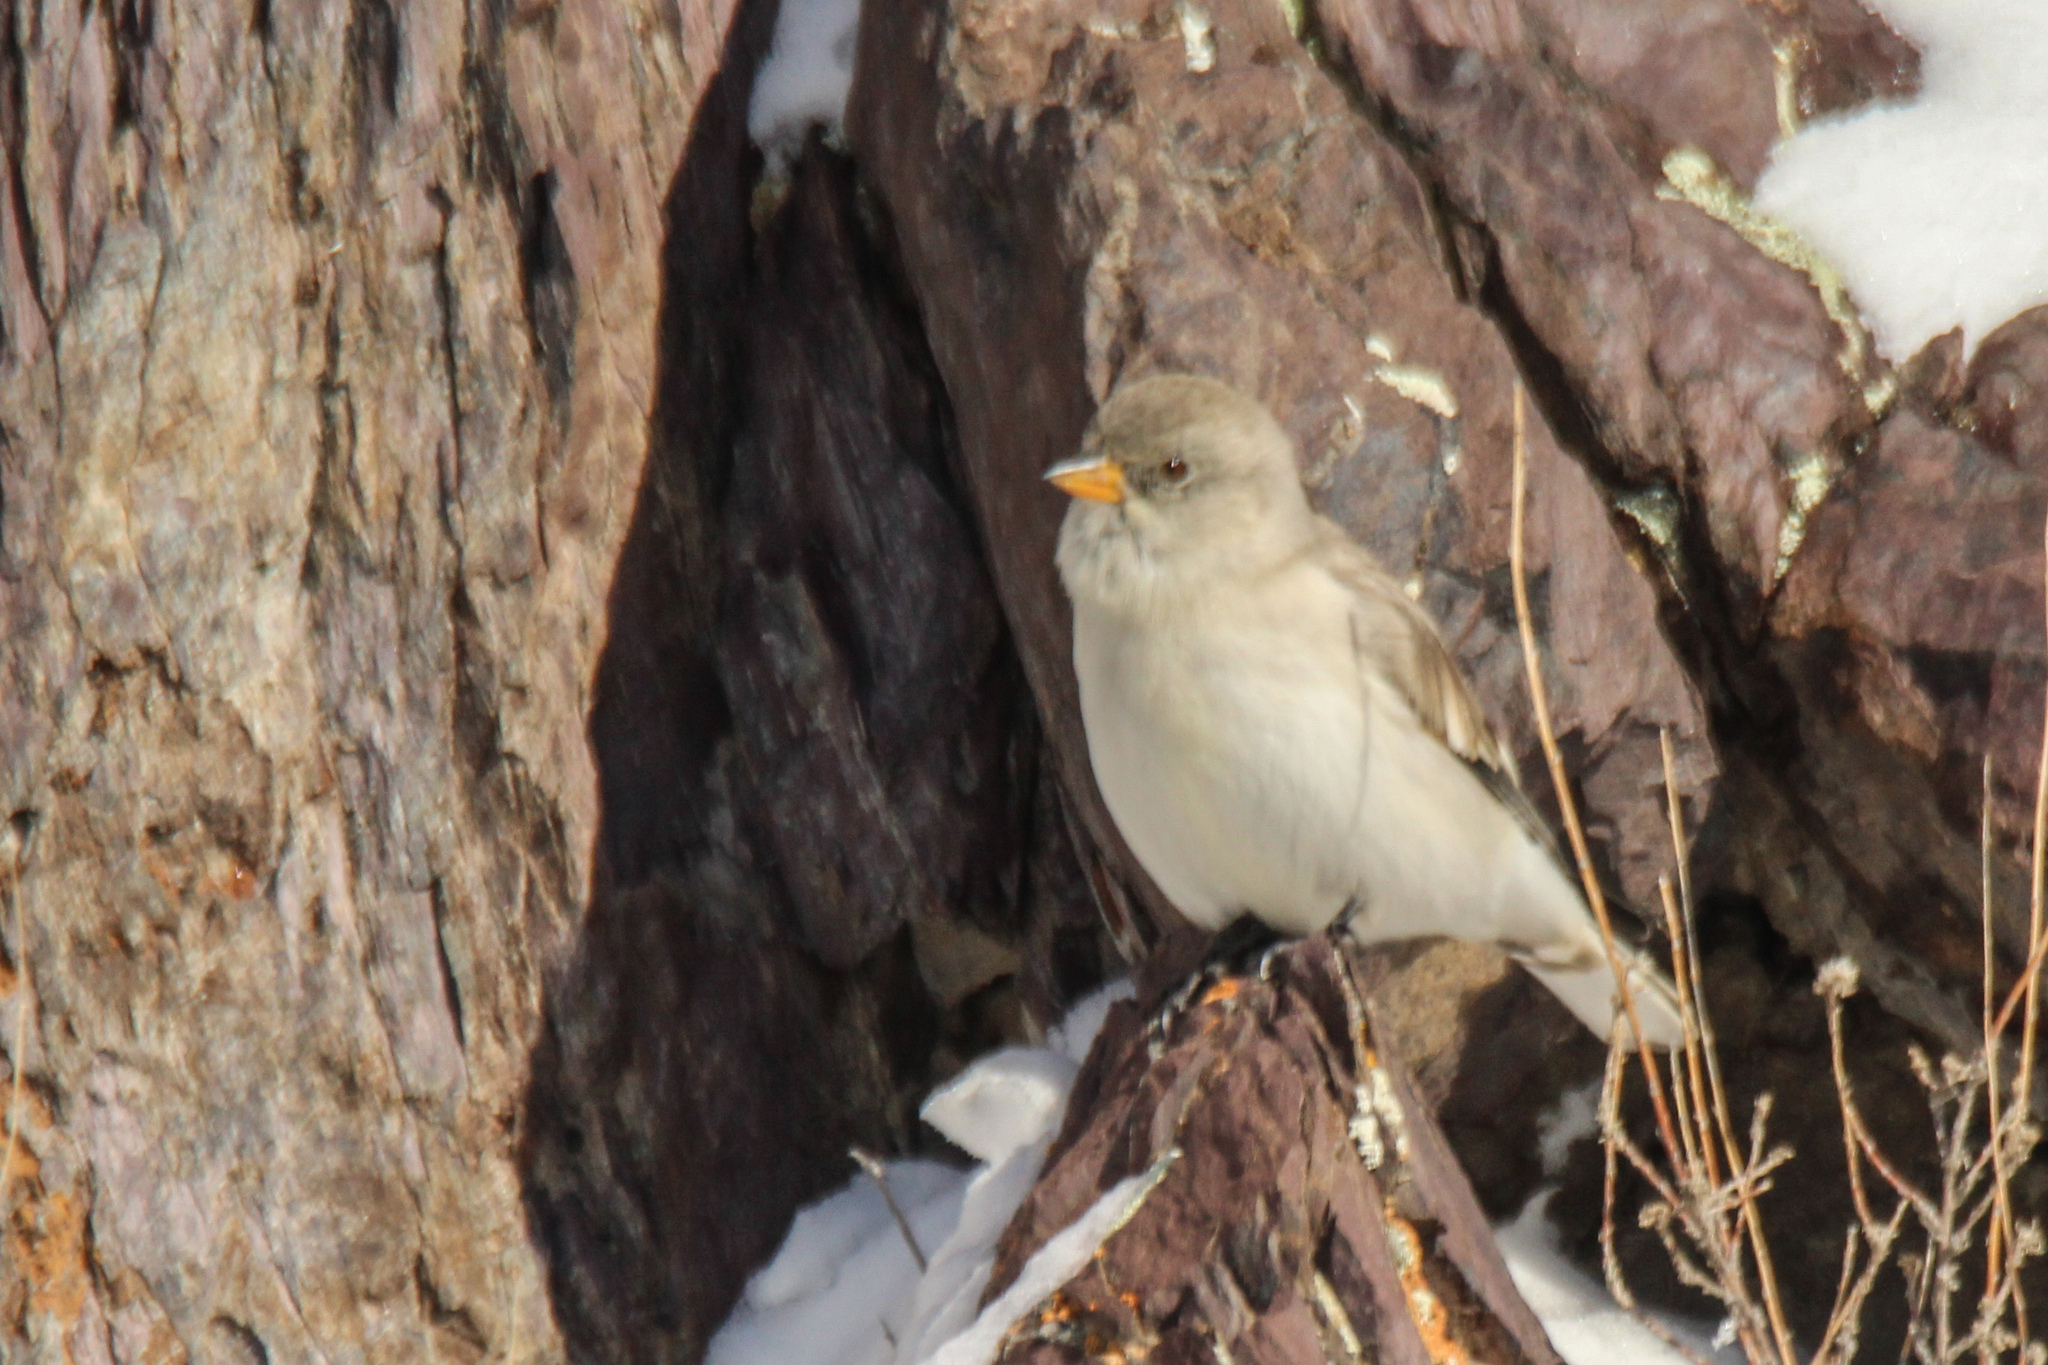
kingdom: Animalia
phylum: Chordata
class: Aves
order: Passeriformes
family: Passeridae
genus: Montifringilla
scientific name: Montifringilla nivalis
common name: White-winged snowfinch
